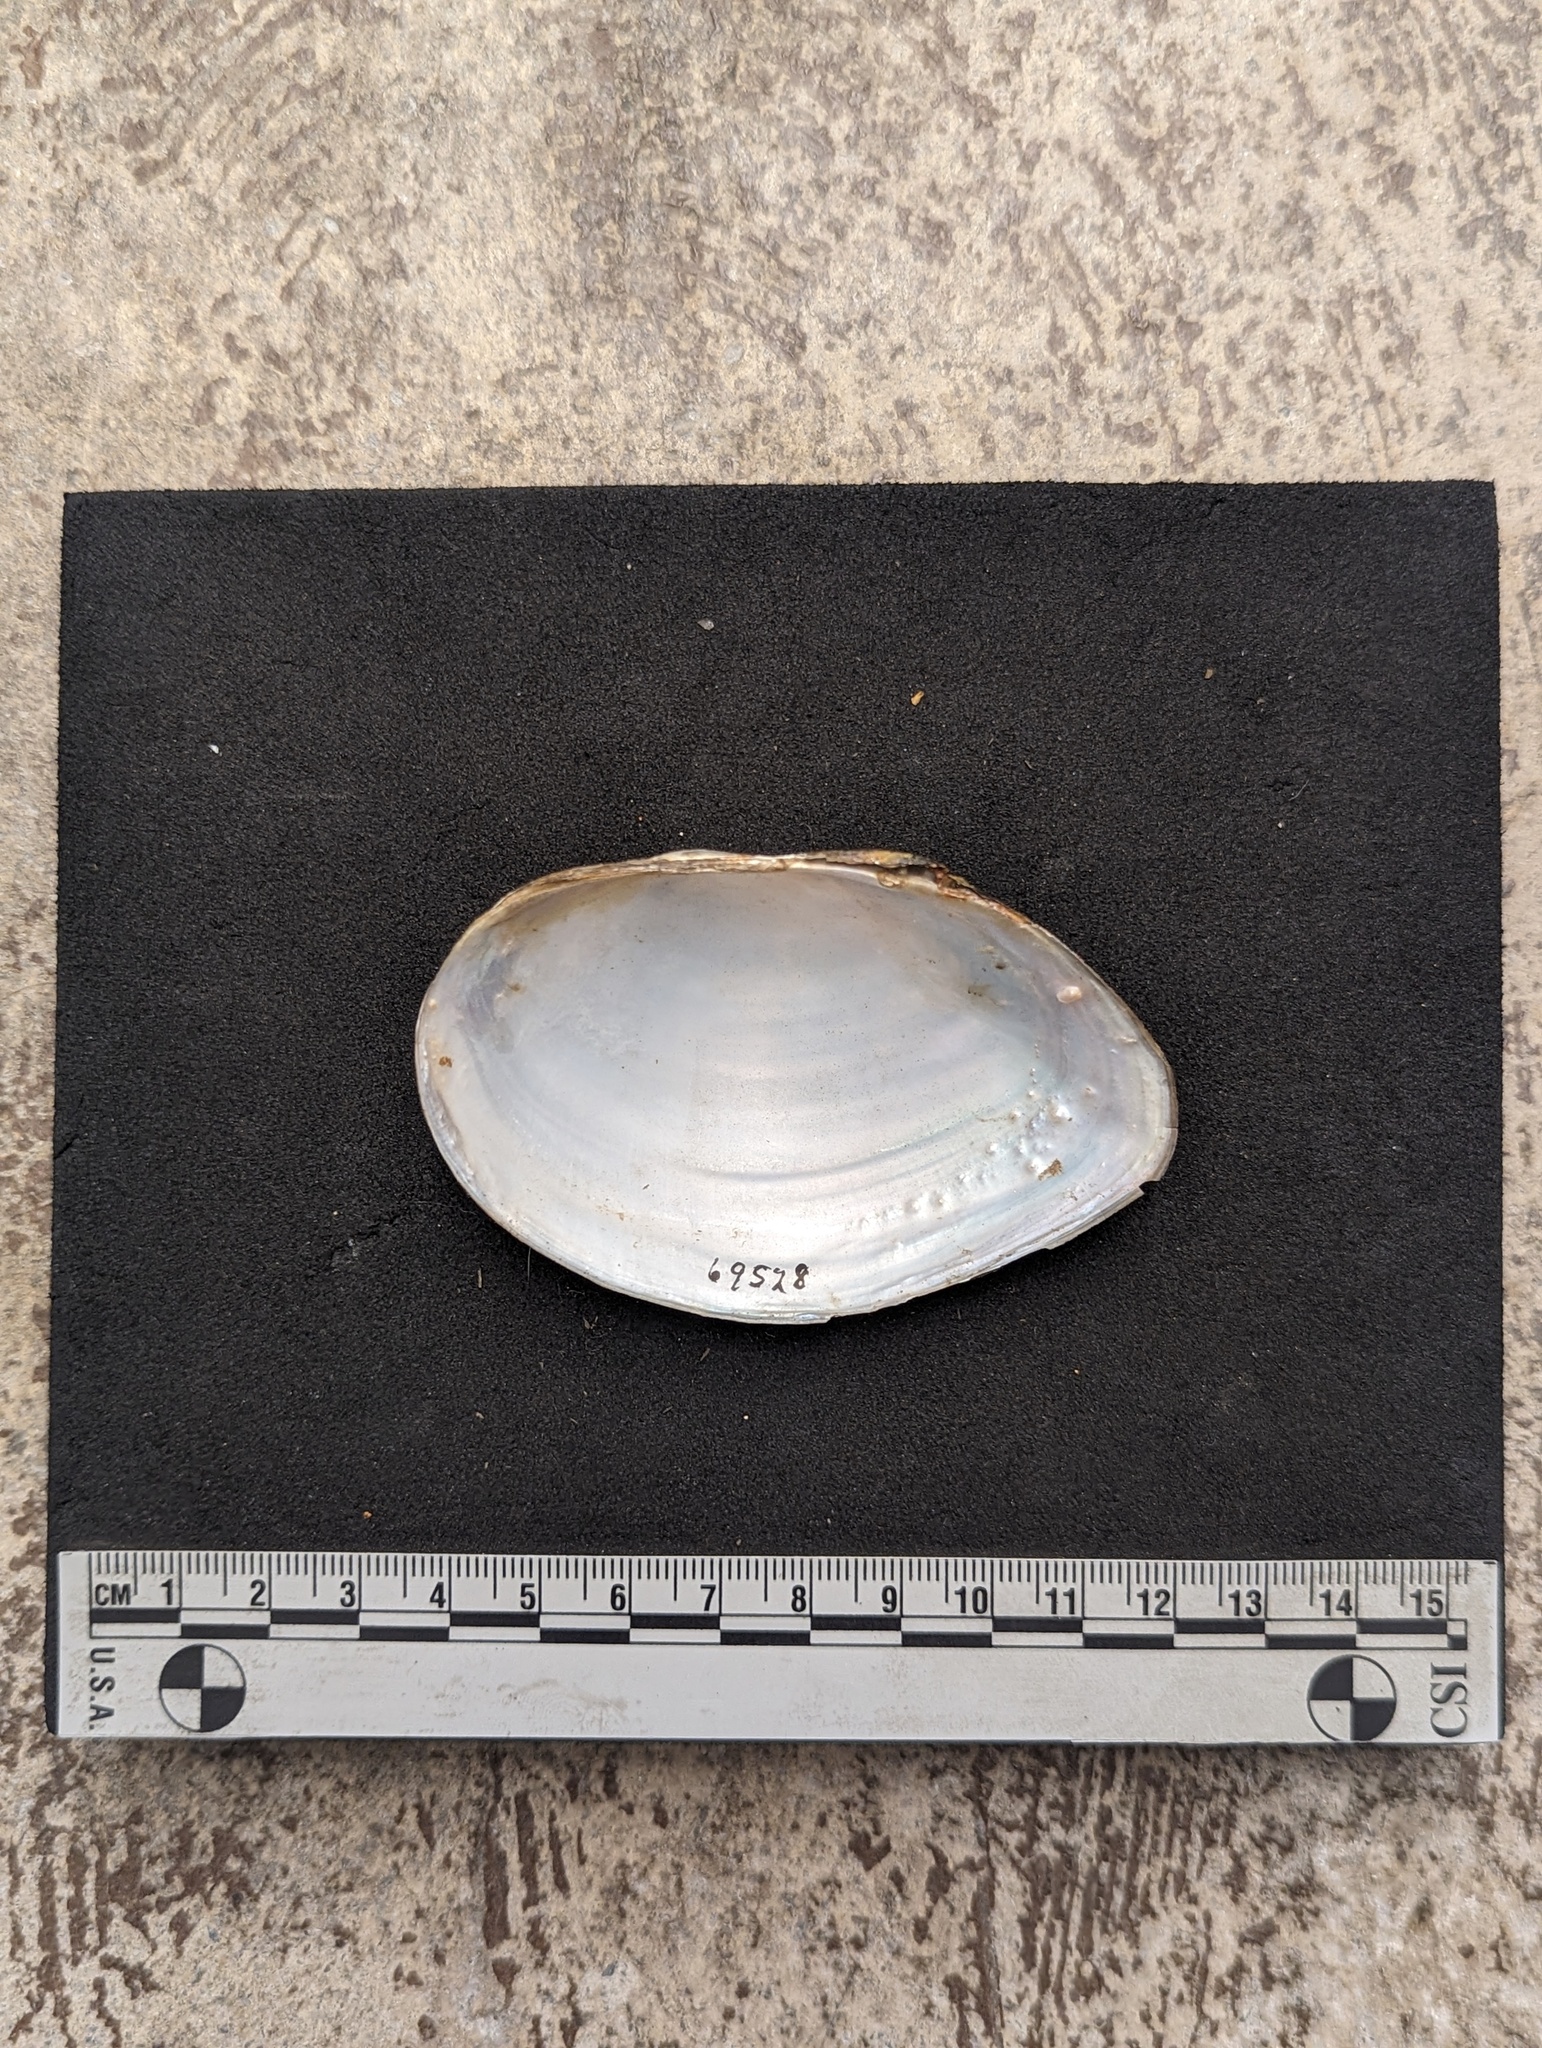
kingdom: Animalia
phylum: Mollusca
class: Bivalvia
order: Unionida
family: Unionidae
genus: Utterbackiana
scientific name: Utterbackiana couperiana
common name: Barrel floater
